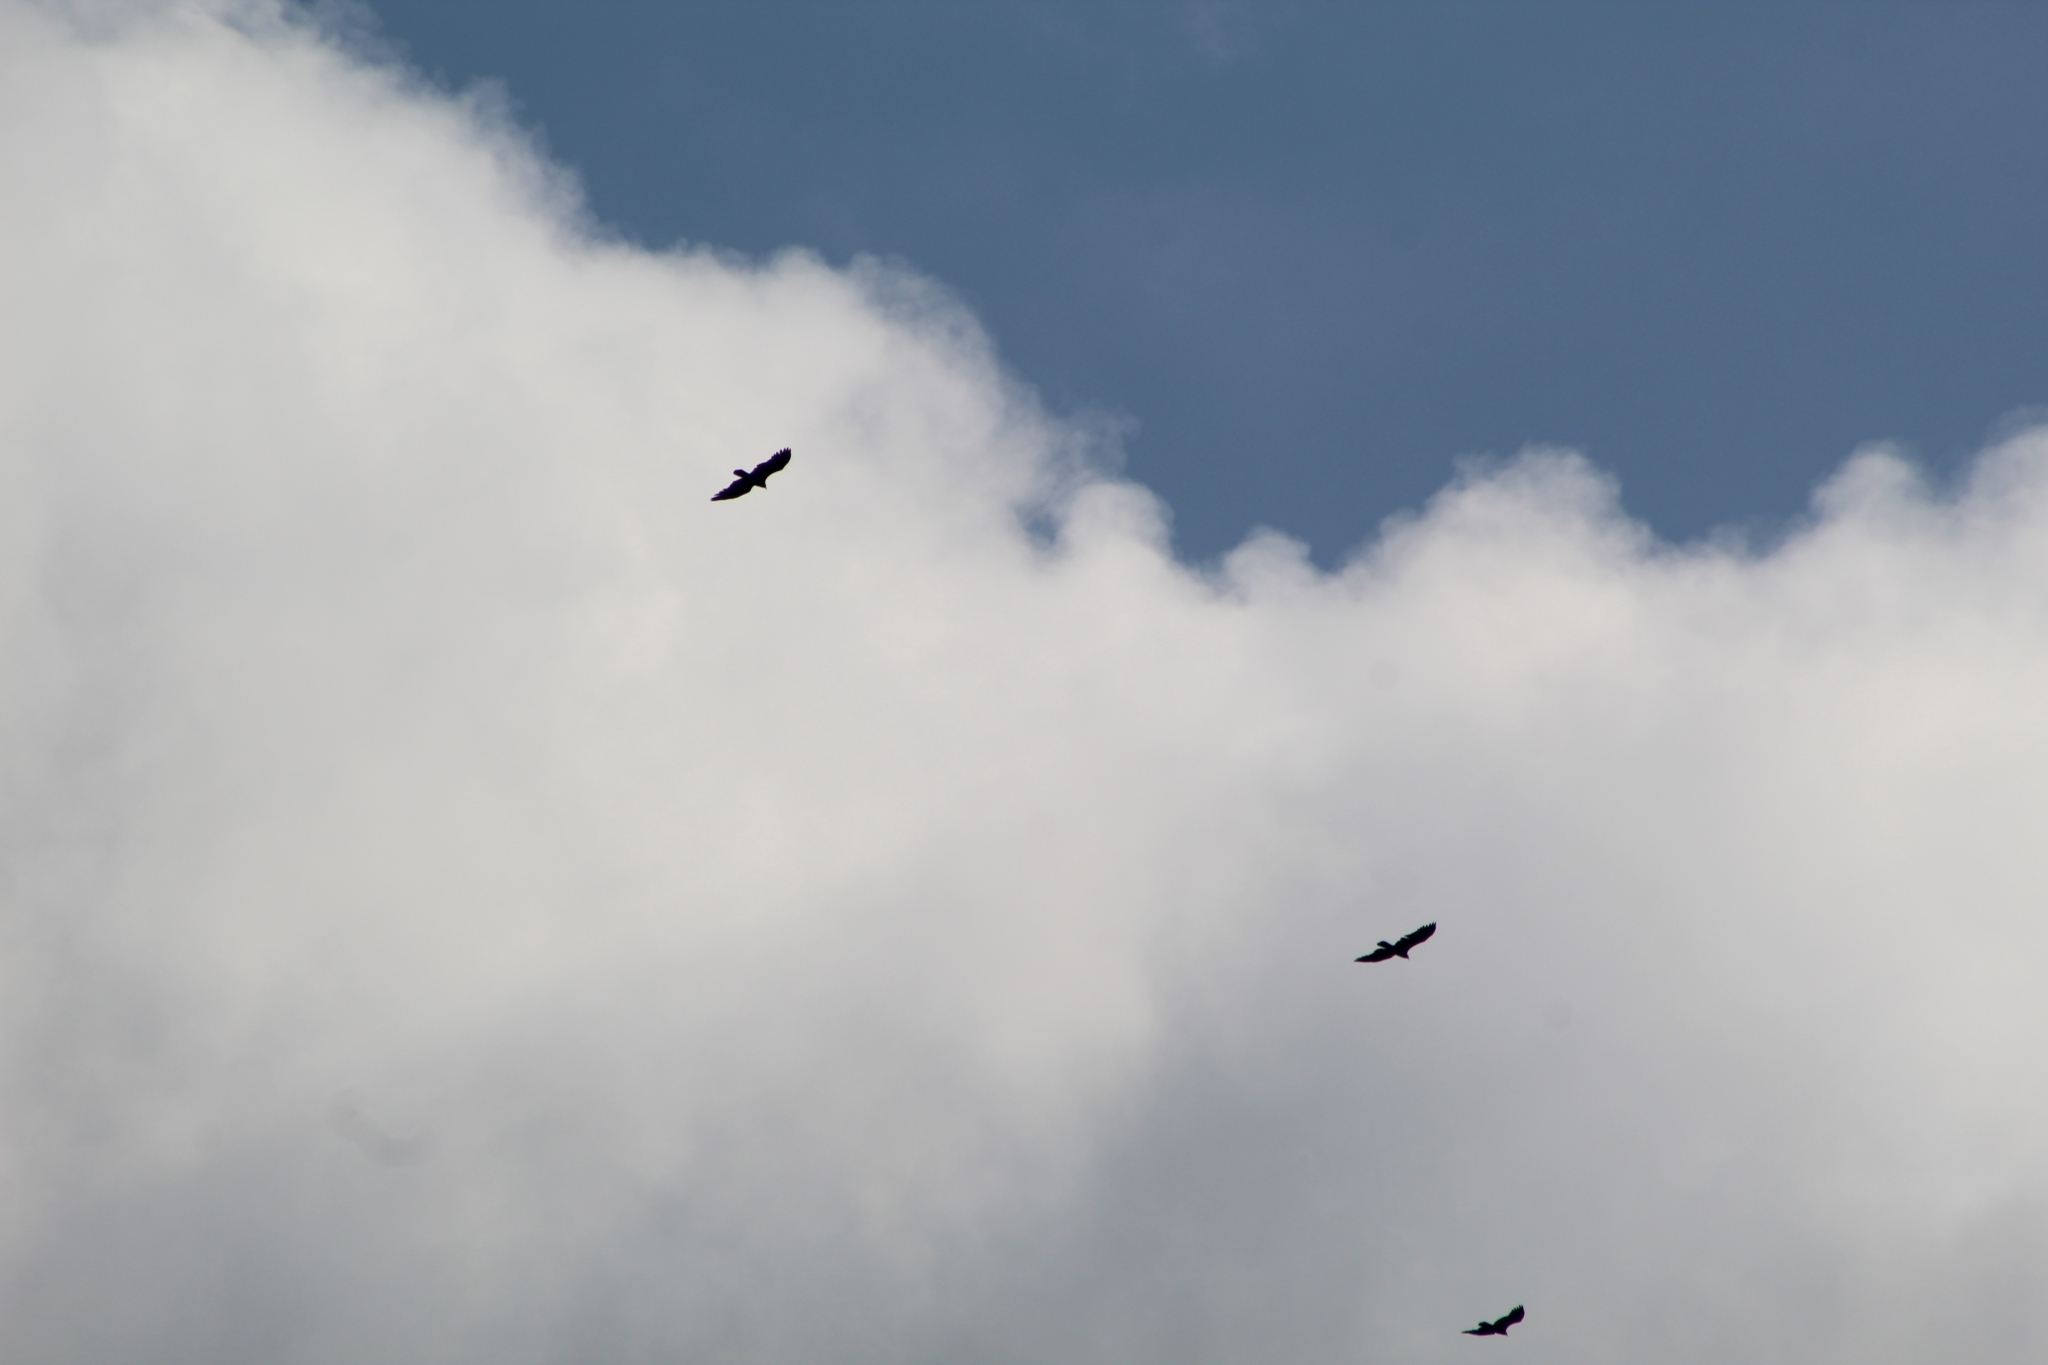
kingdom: Animalia
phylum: Chordata
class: Aves
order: Accipitriformes
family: Cathartidae
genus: Cathartes
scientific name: Cathartes aura
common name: Turkey vulture
